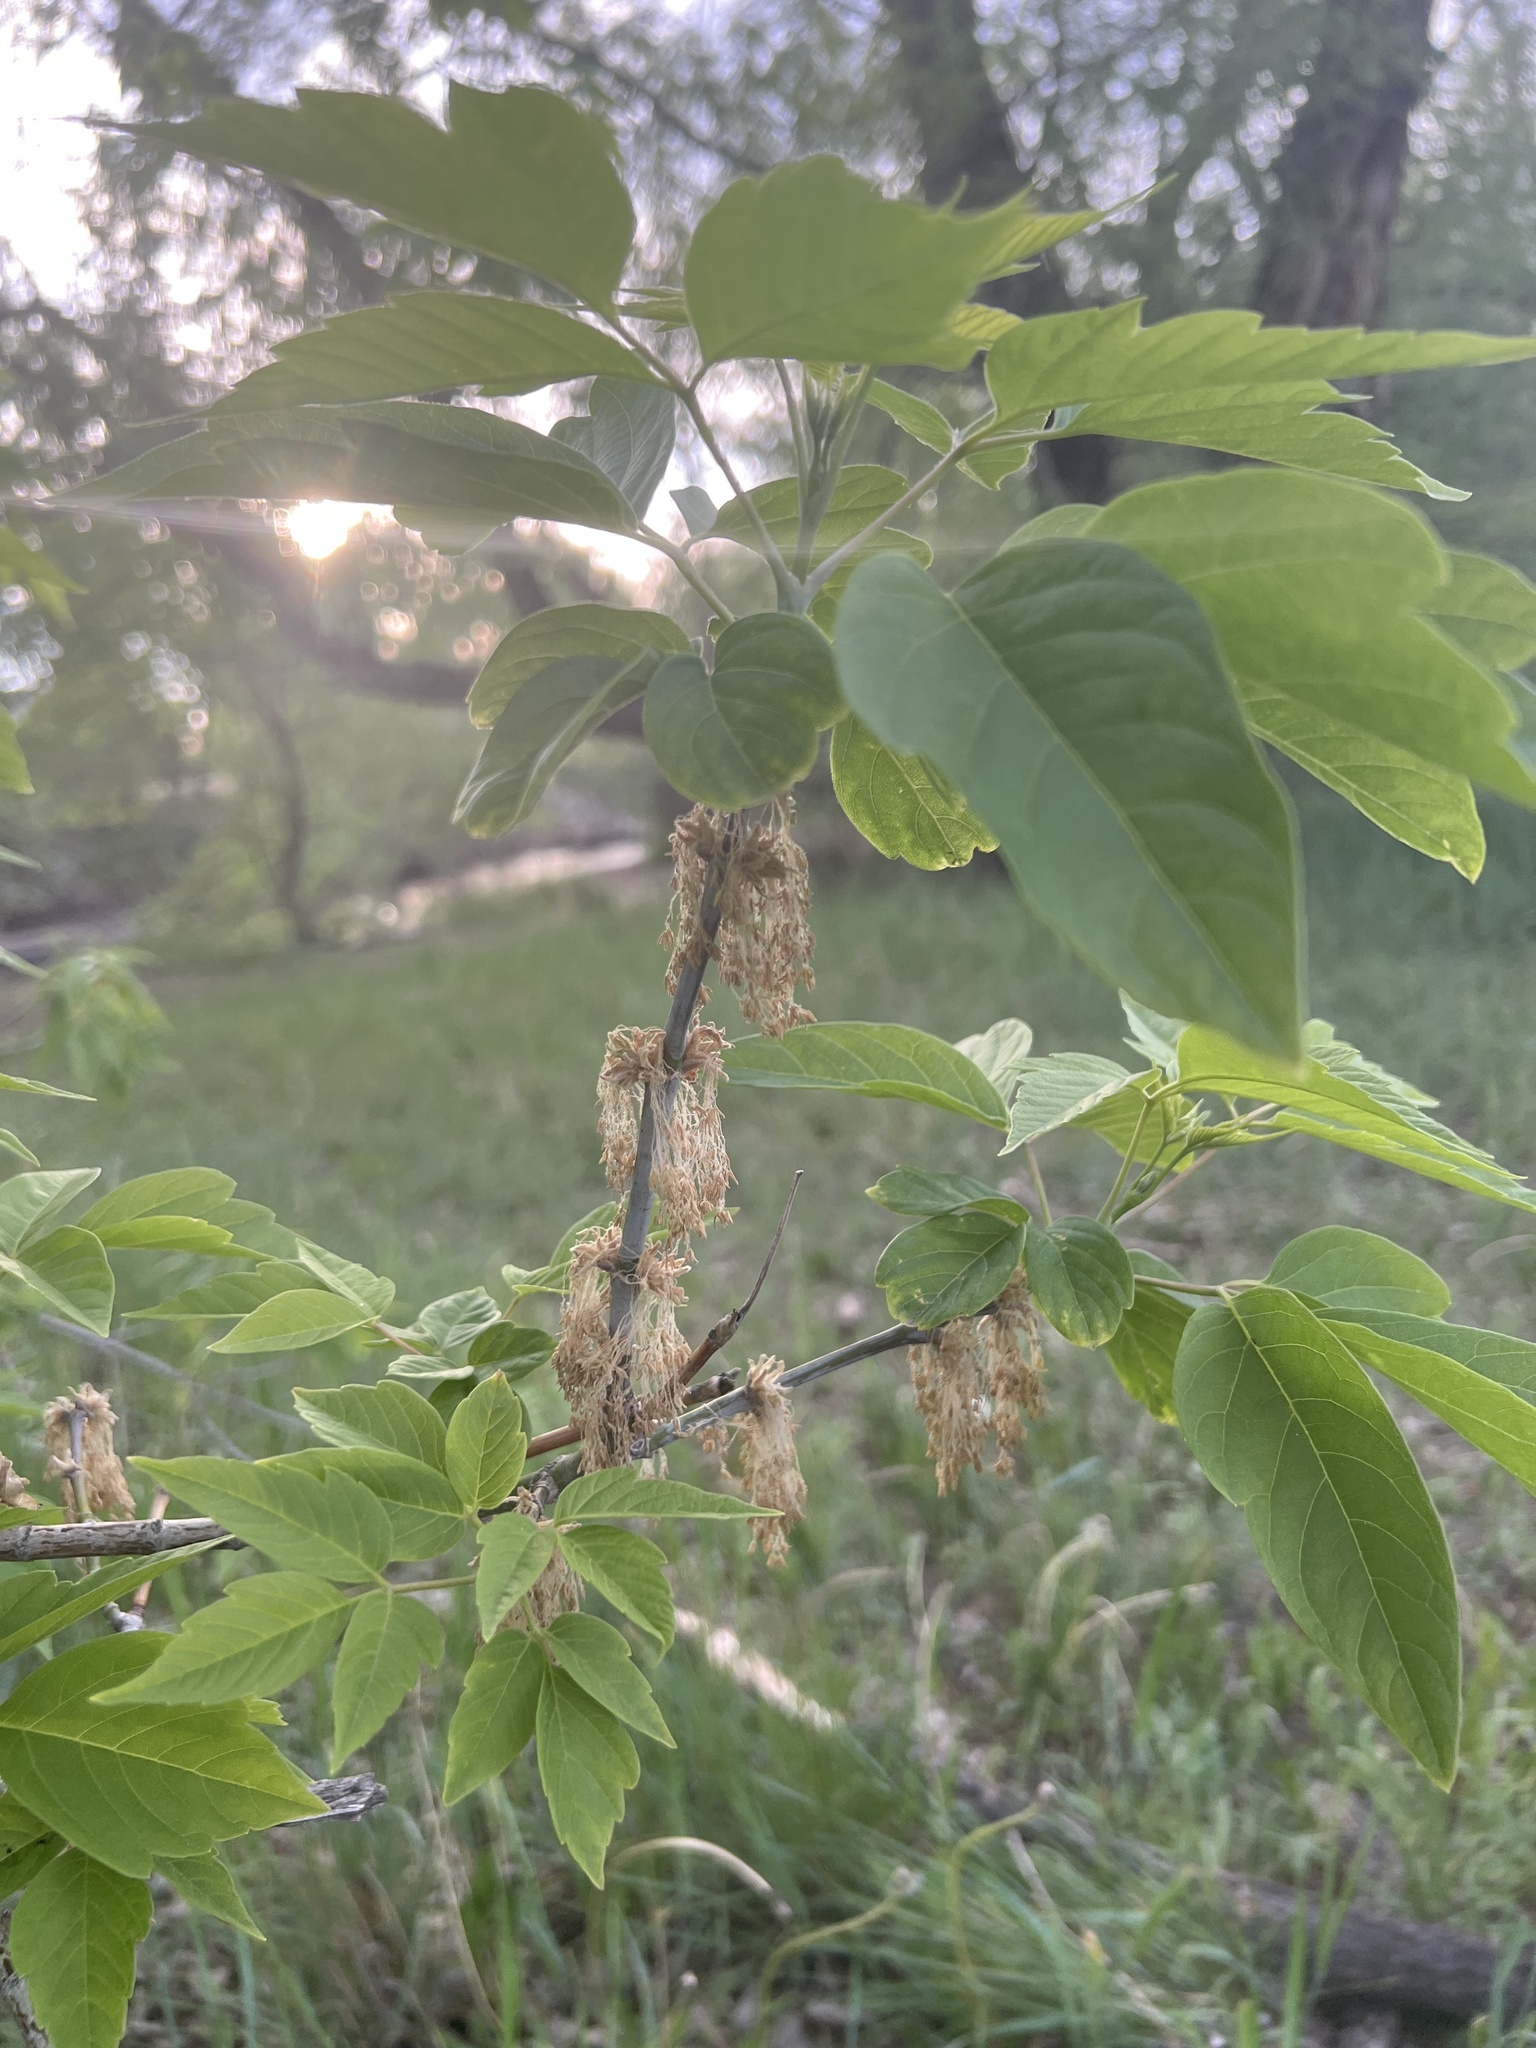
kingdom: Plantae
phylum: Tracheophyta
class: Magnoliopsida
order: Sapindales
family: Sapindaceae
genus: Acer
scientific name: Acer negundo
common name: Ashleaf maple
